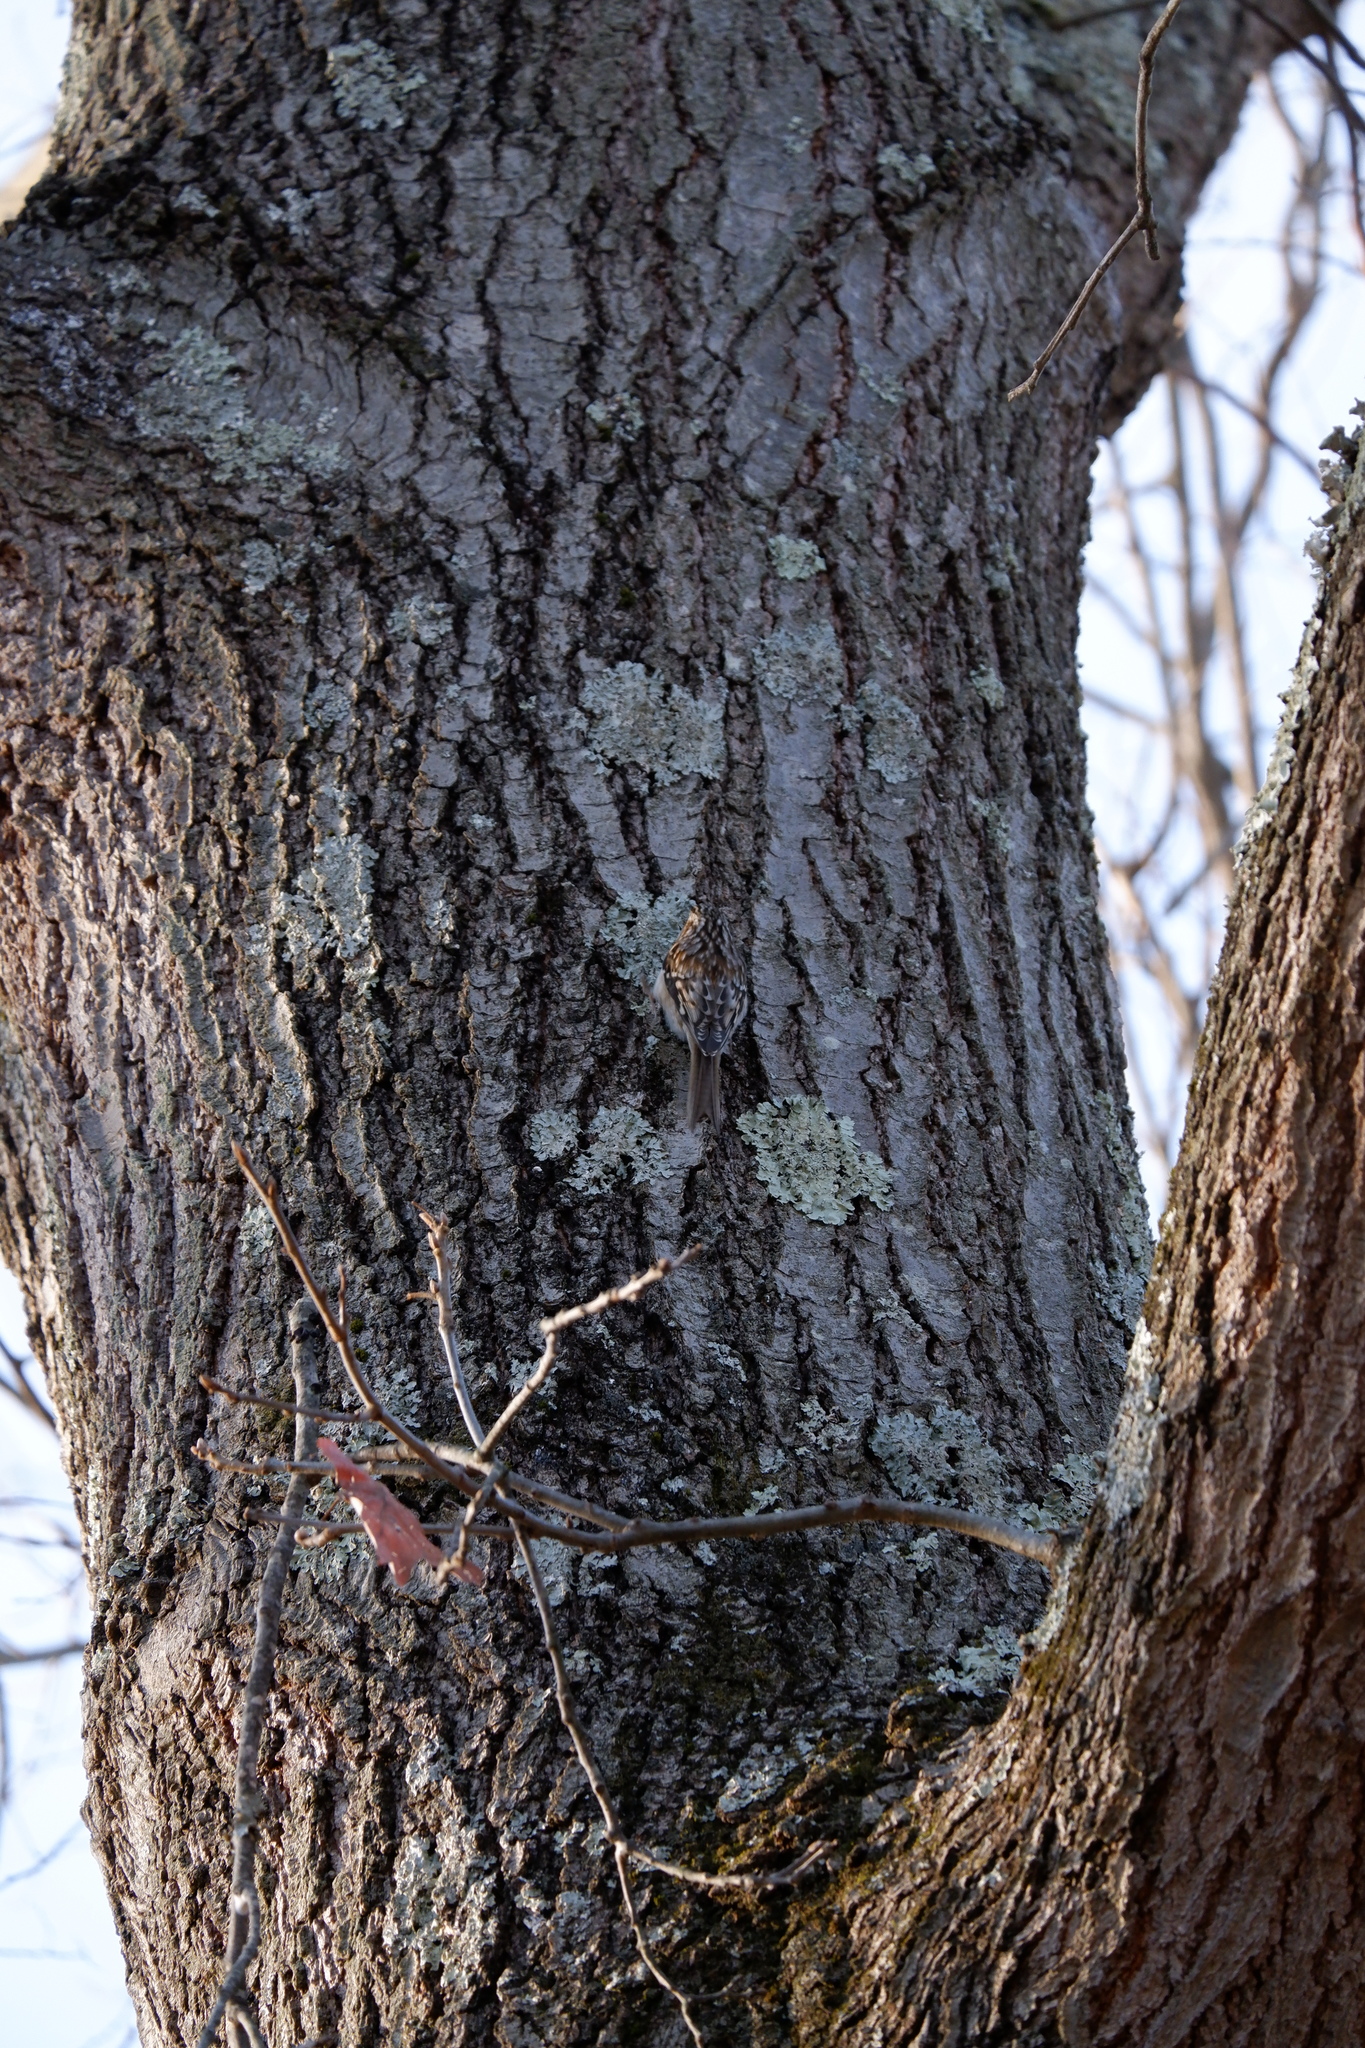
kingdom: Animalia
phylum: Chordata
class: Aves
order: Passeriformes
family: Certhiidae
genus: Certhia
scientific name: Certhia americana
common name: Brown creeper
